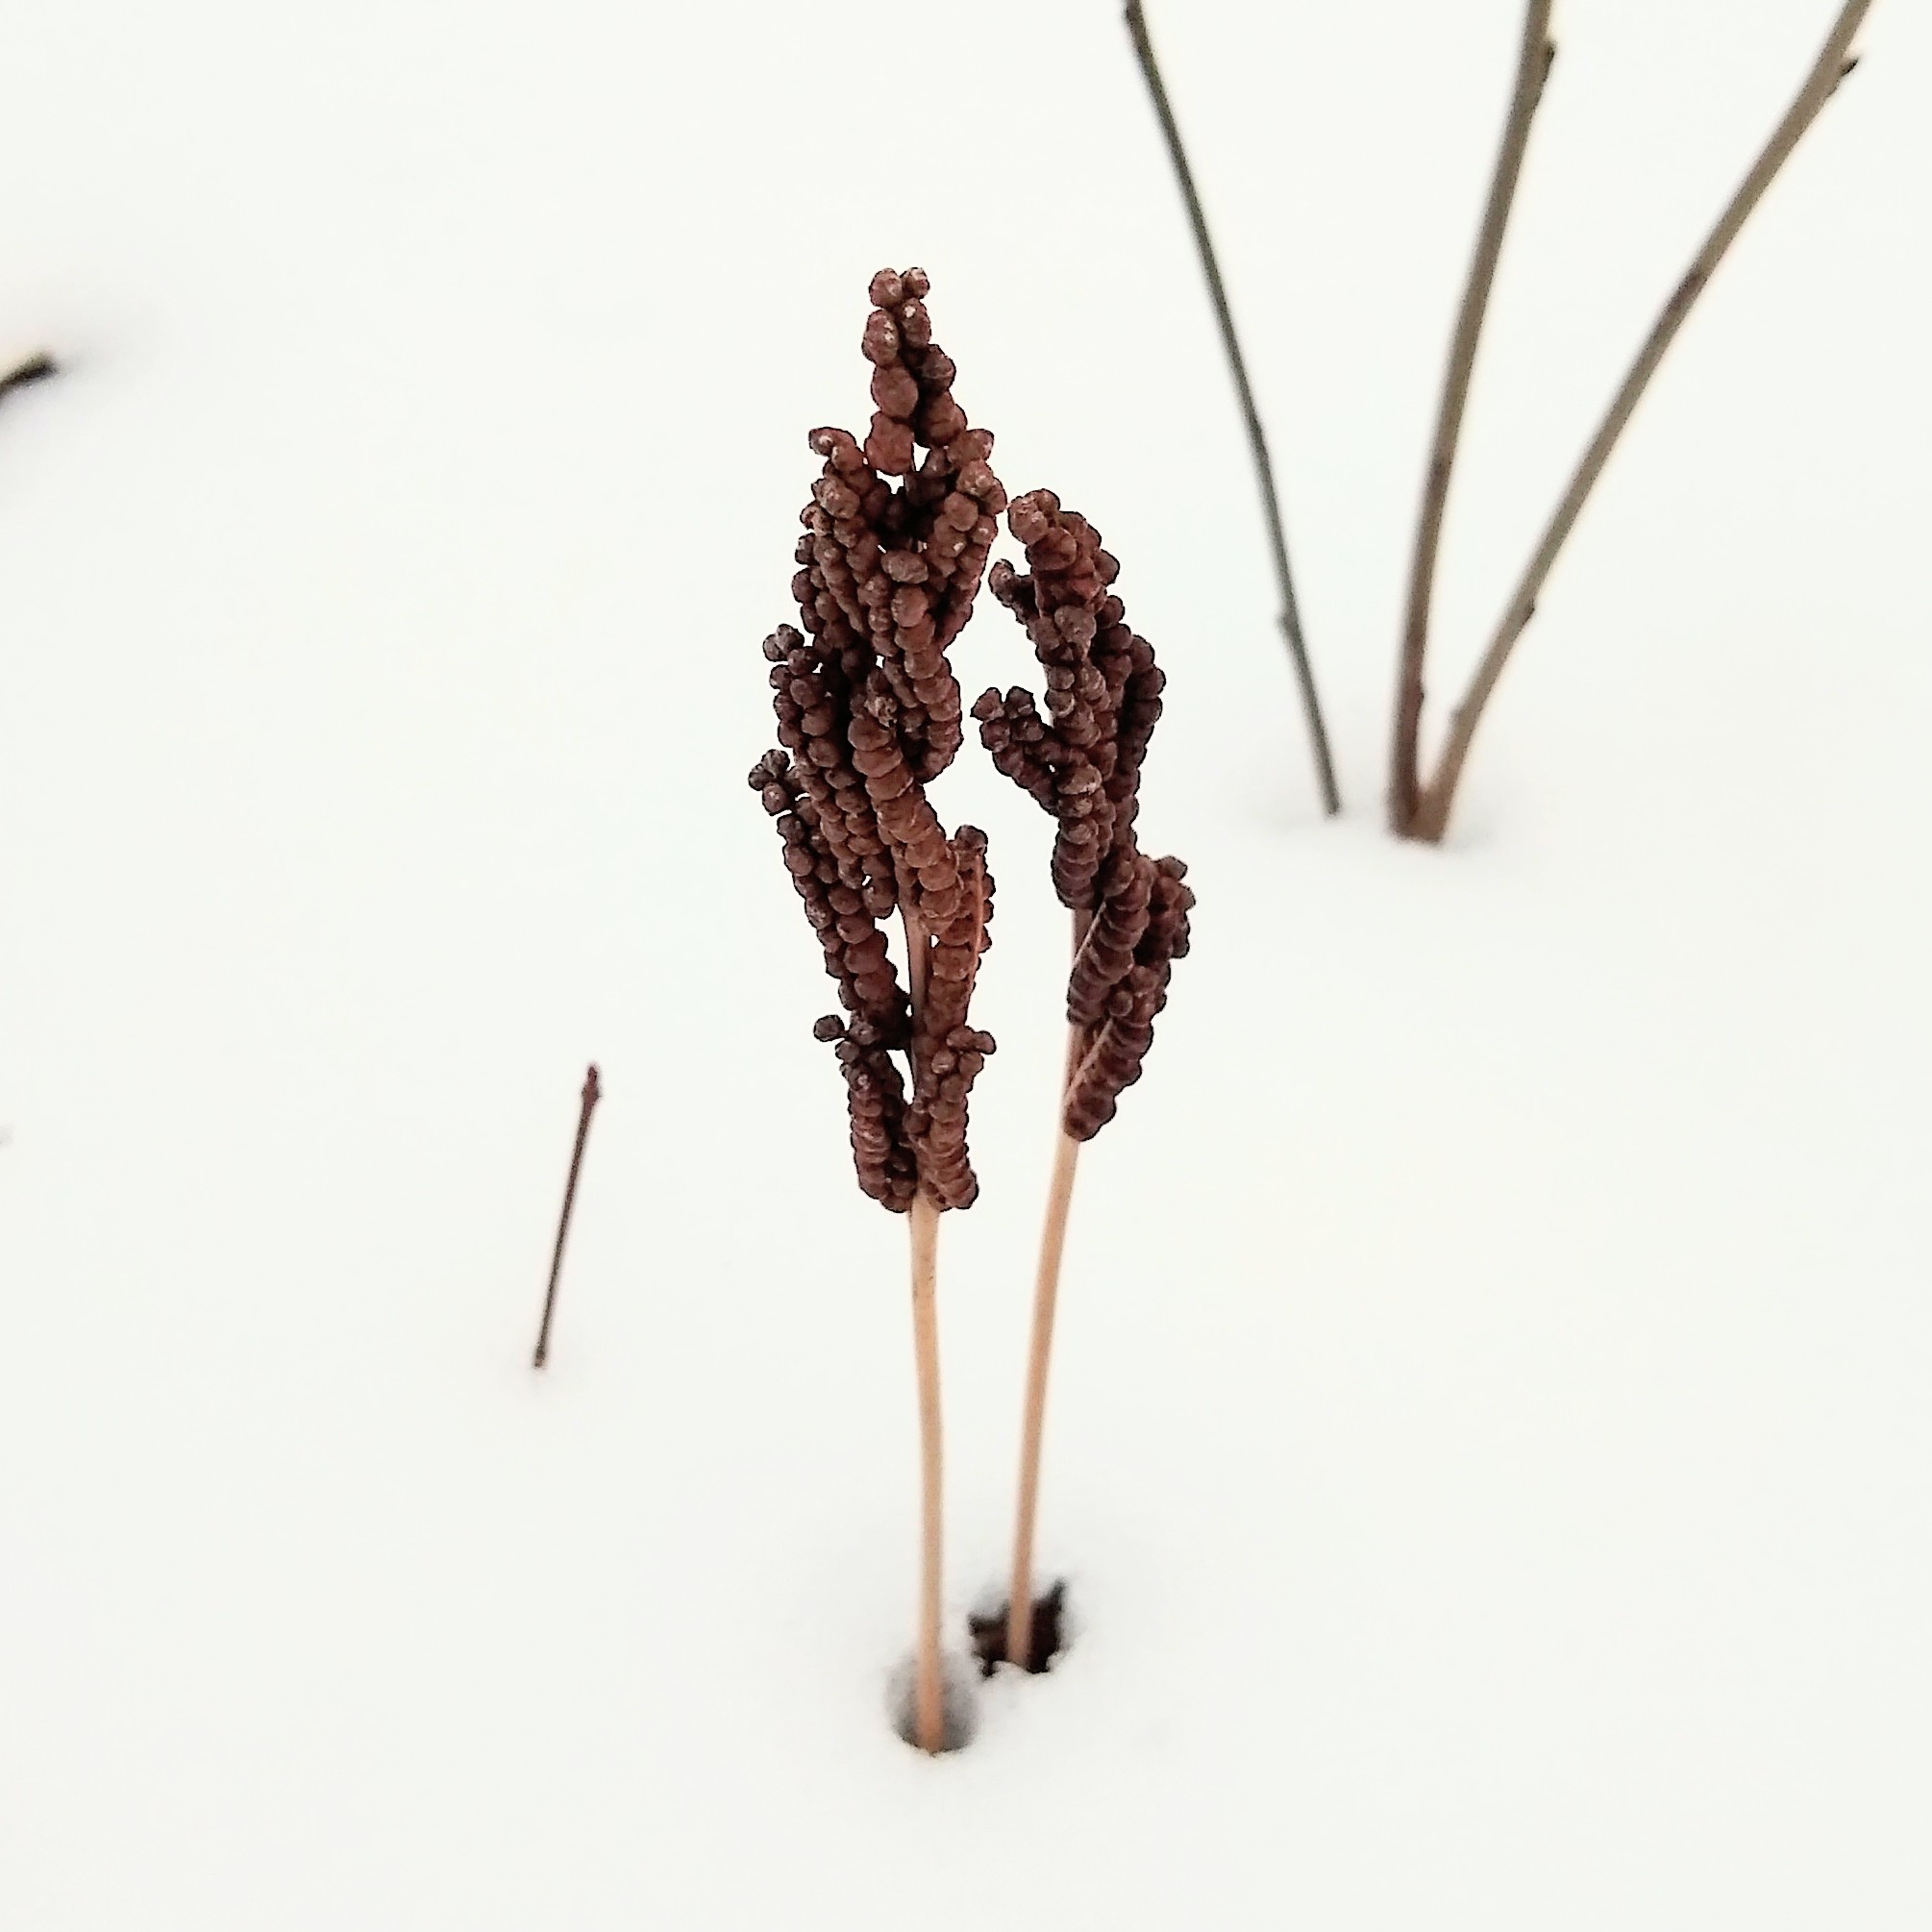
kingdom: Plantae
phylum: Tracheophyta
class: Polypodiopsida
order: Polypodiales
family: Onocleaceae
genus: Onoclea
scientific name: Onoclea sensibilis
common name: Sensitive fern
